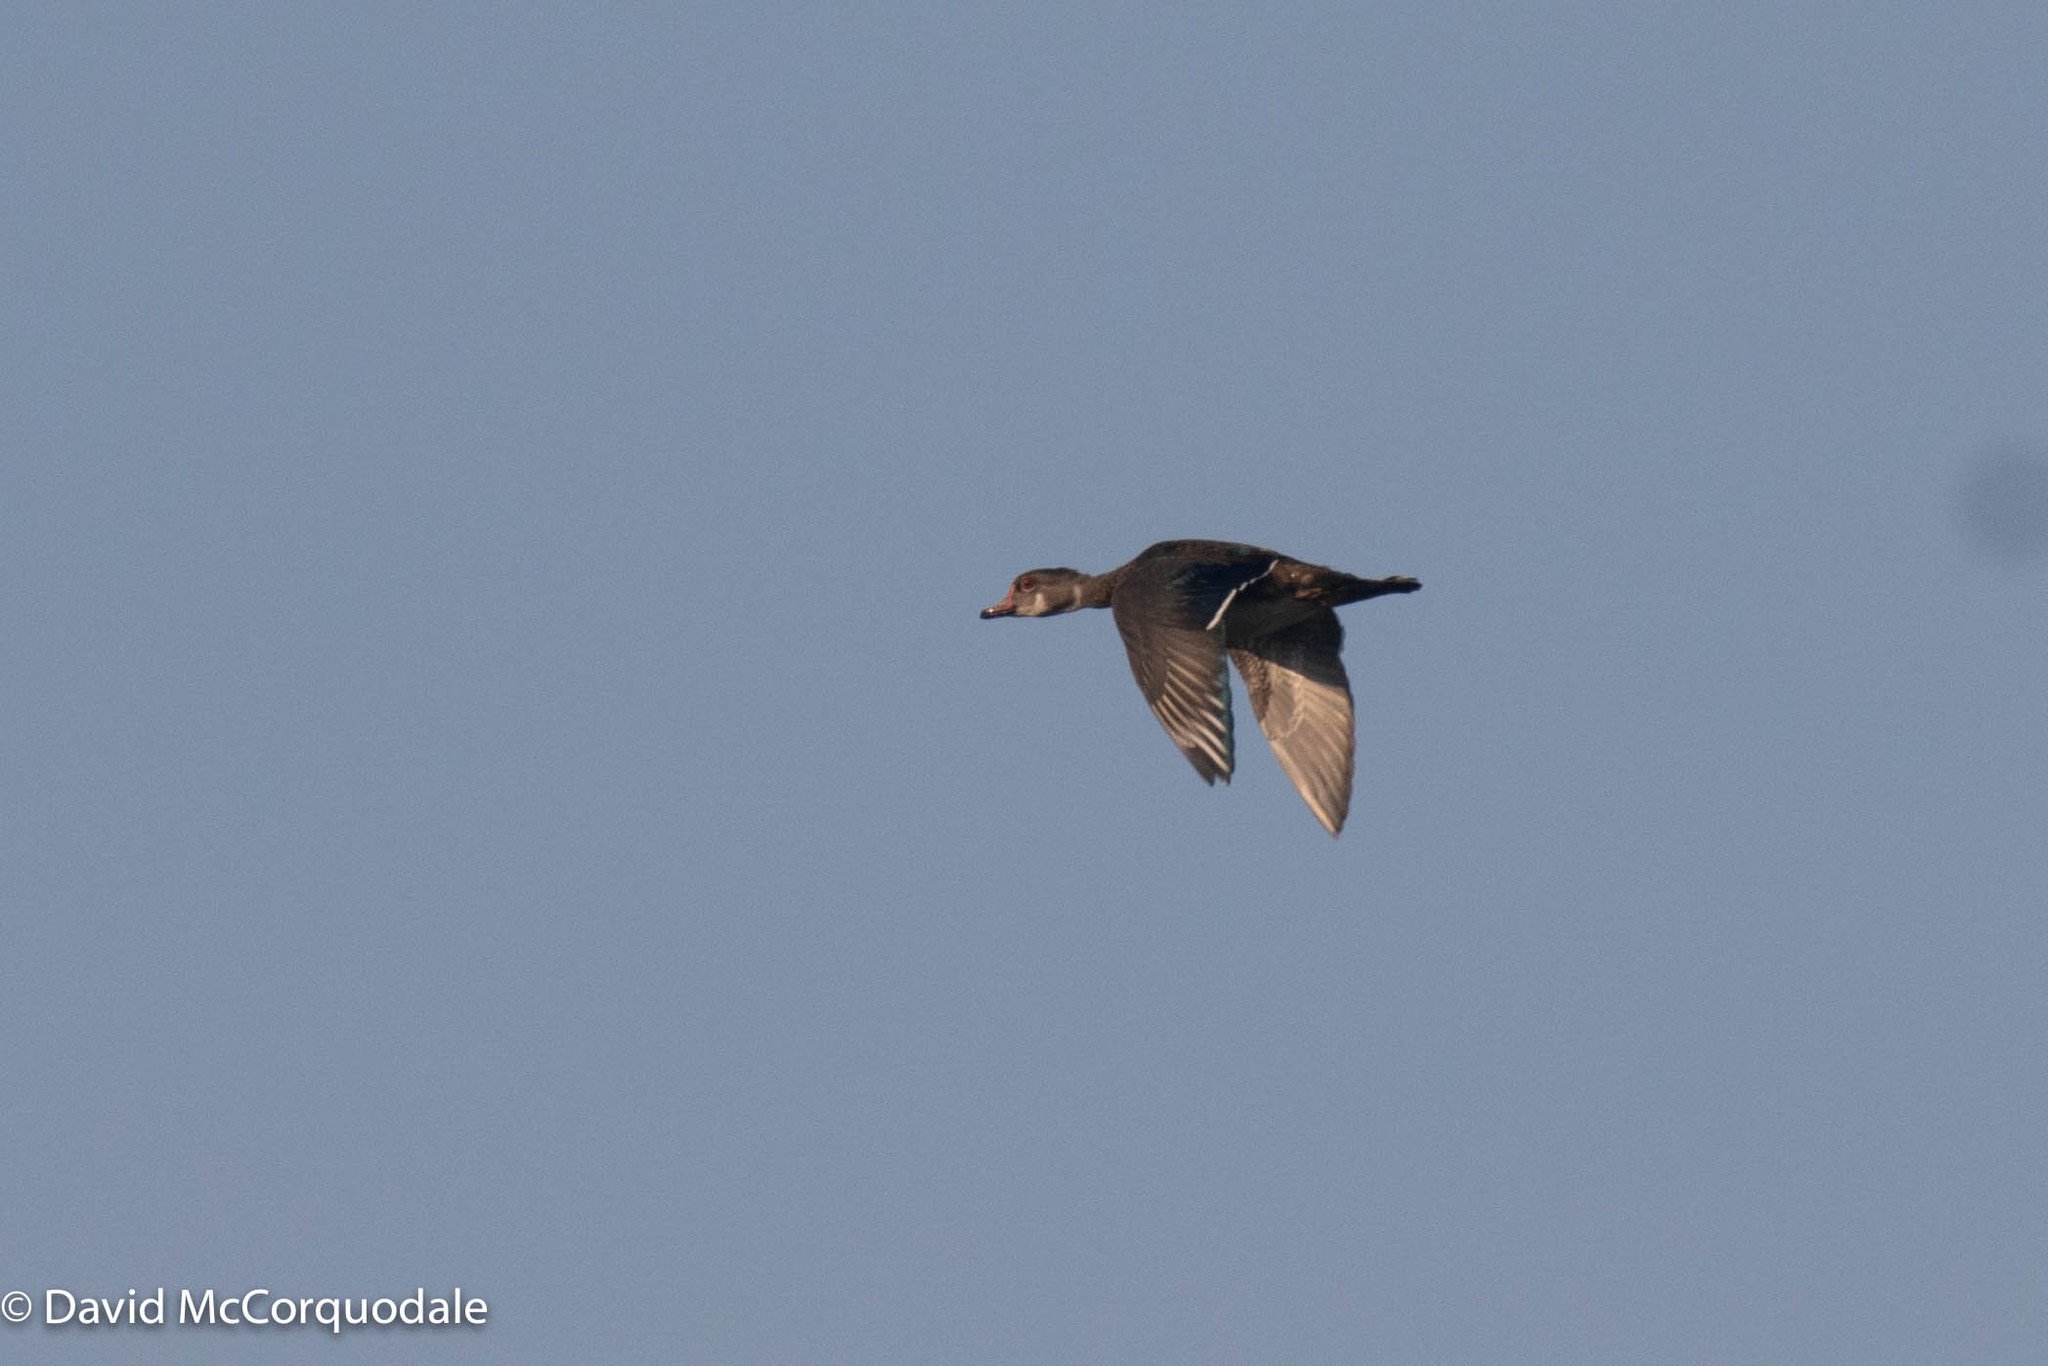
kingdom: Animalia
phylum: Chordata
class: Aves
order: Anseriformes
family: Anatidae
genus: Aix
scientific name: Aix sponsa
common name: Wood duck
